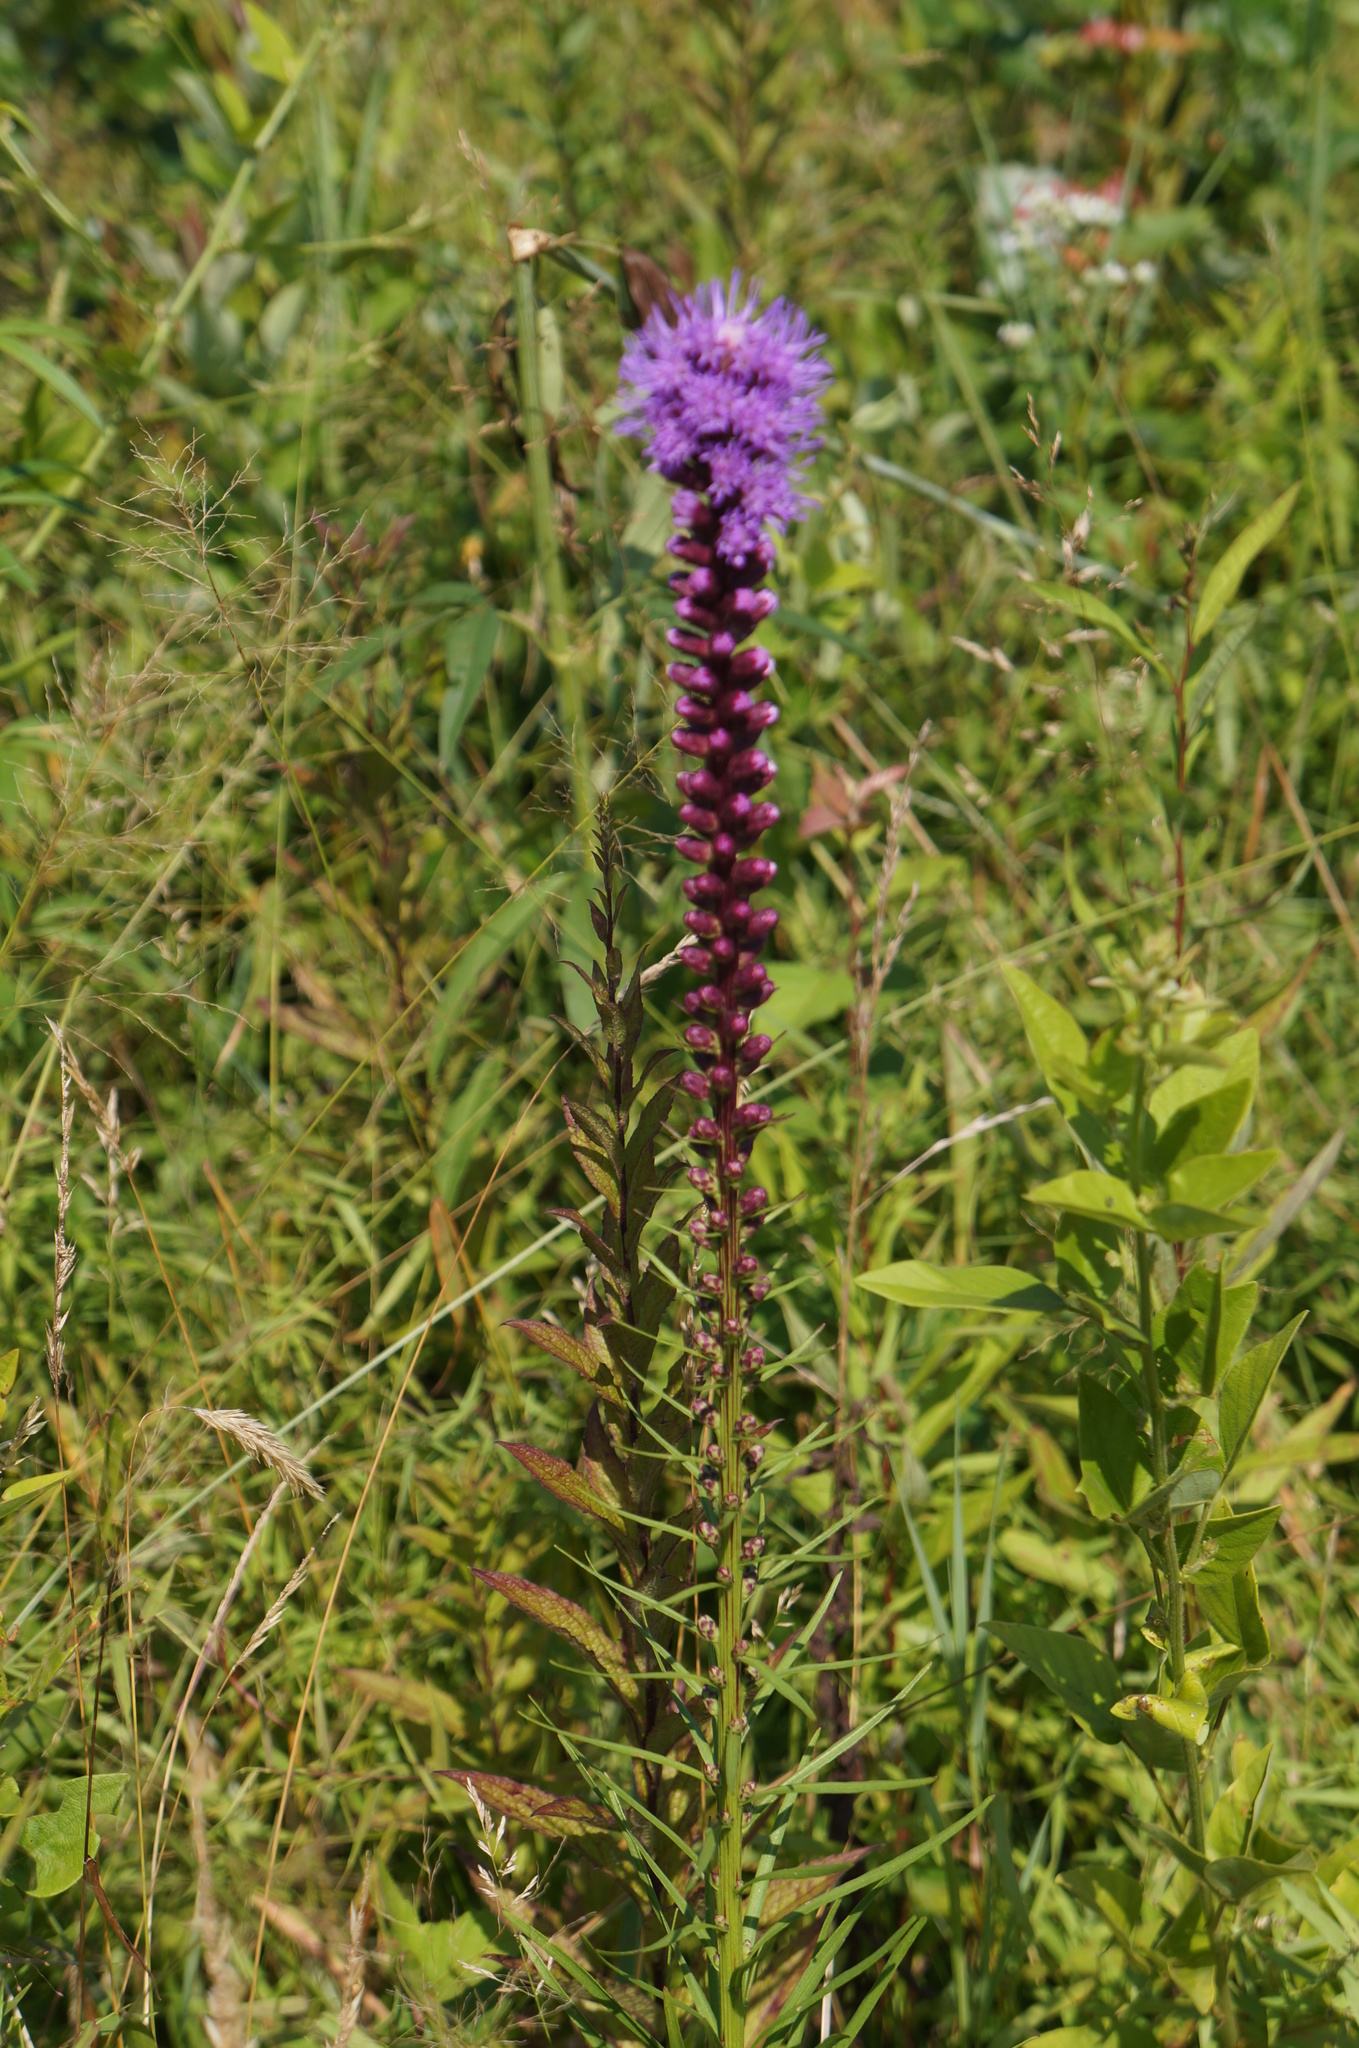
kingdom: Plantae
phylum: Tracheophyta
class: Magnoliopsida
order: Asterales
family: Asteraceae
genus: Liatris
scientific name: Liatris spicata
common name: Florist gayfeather
